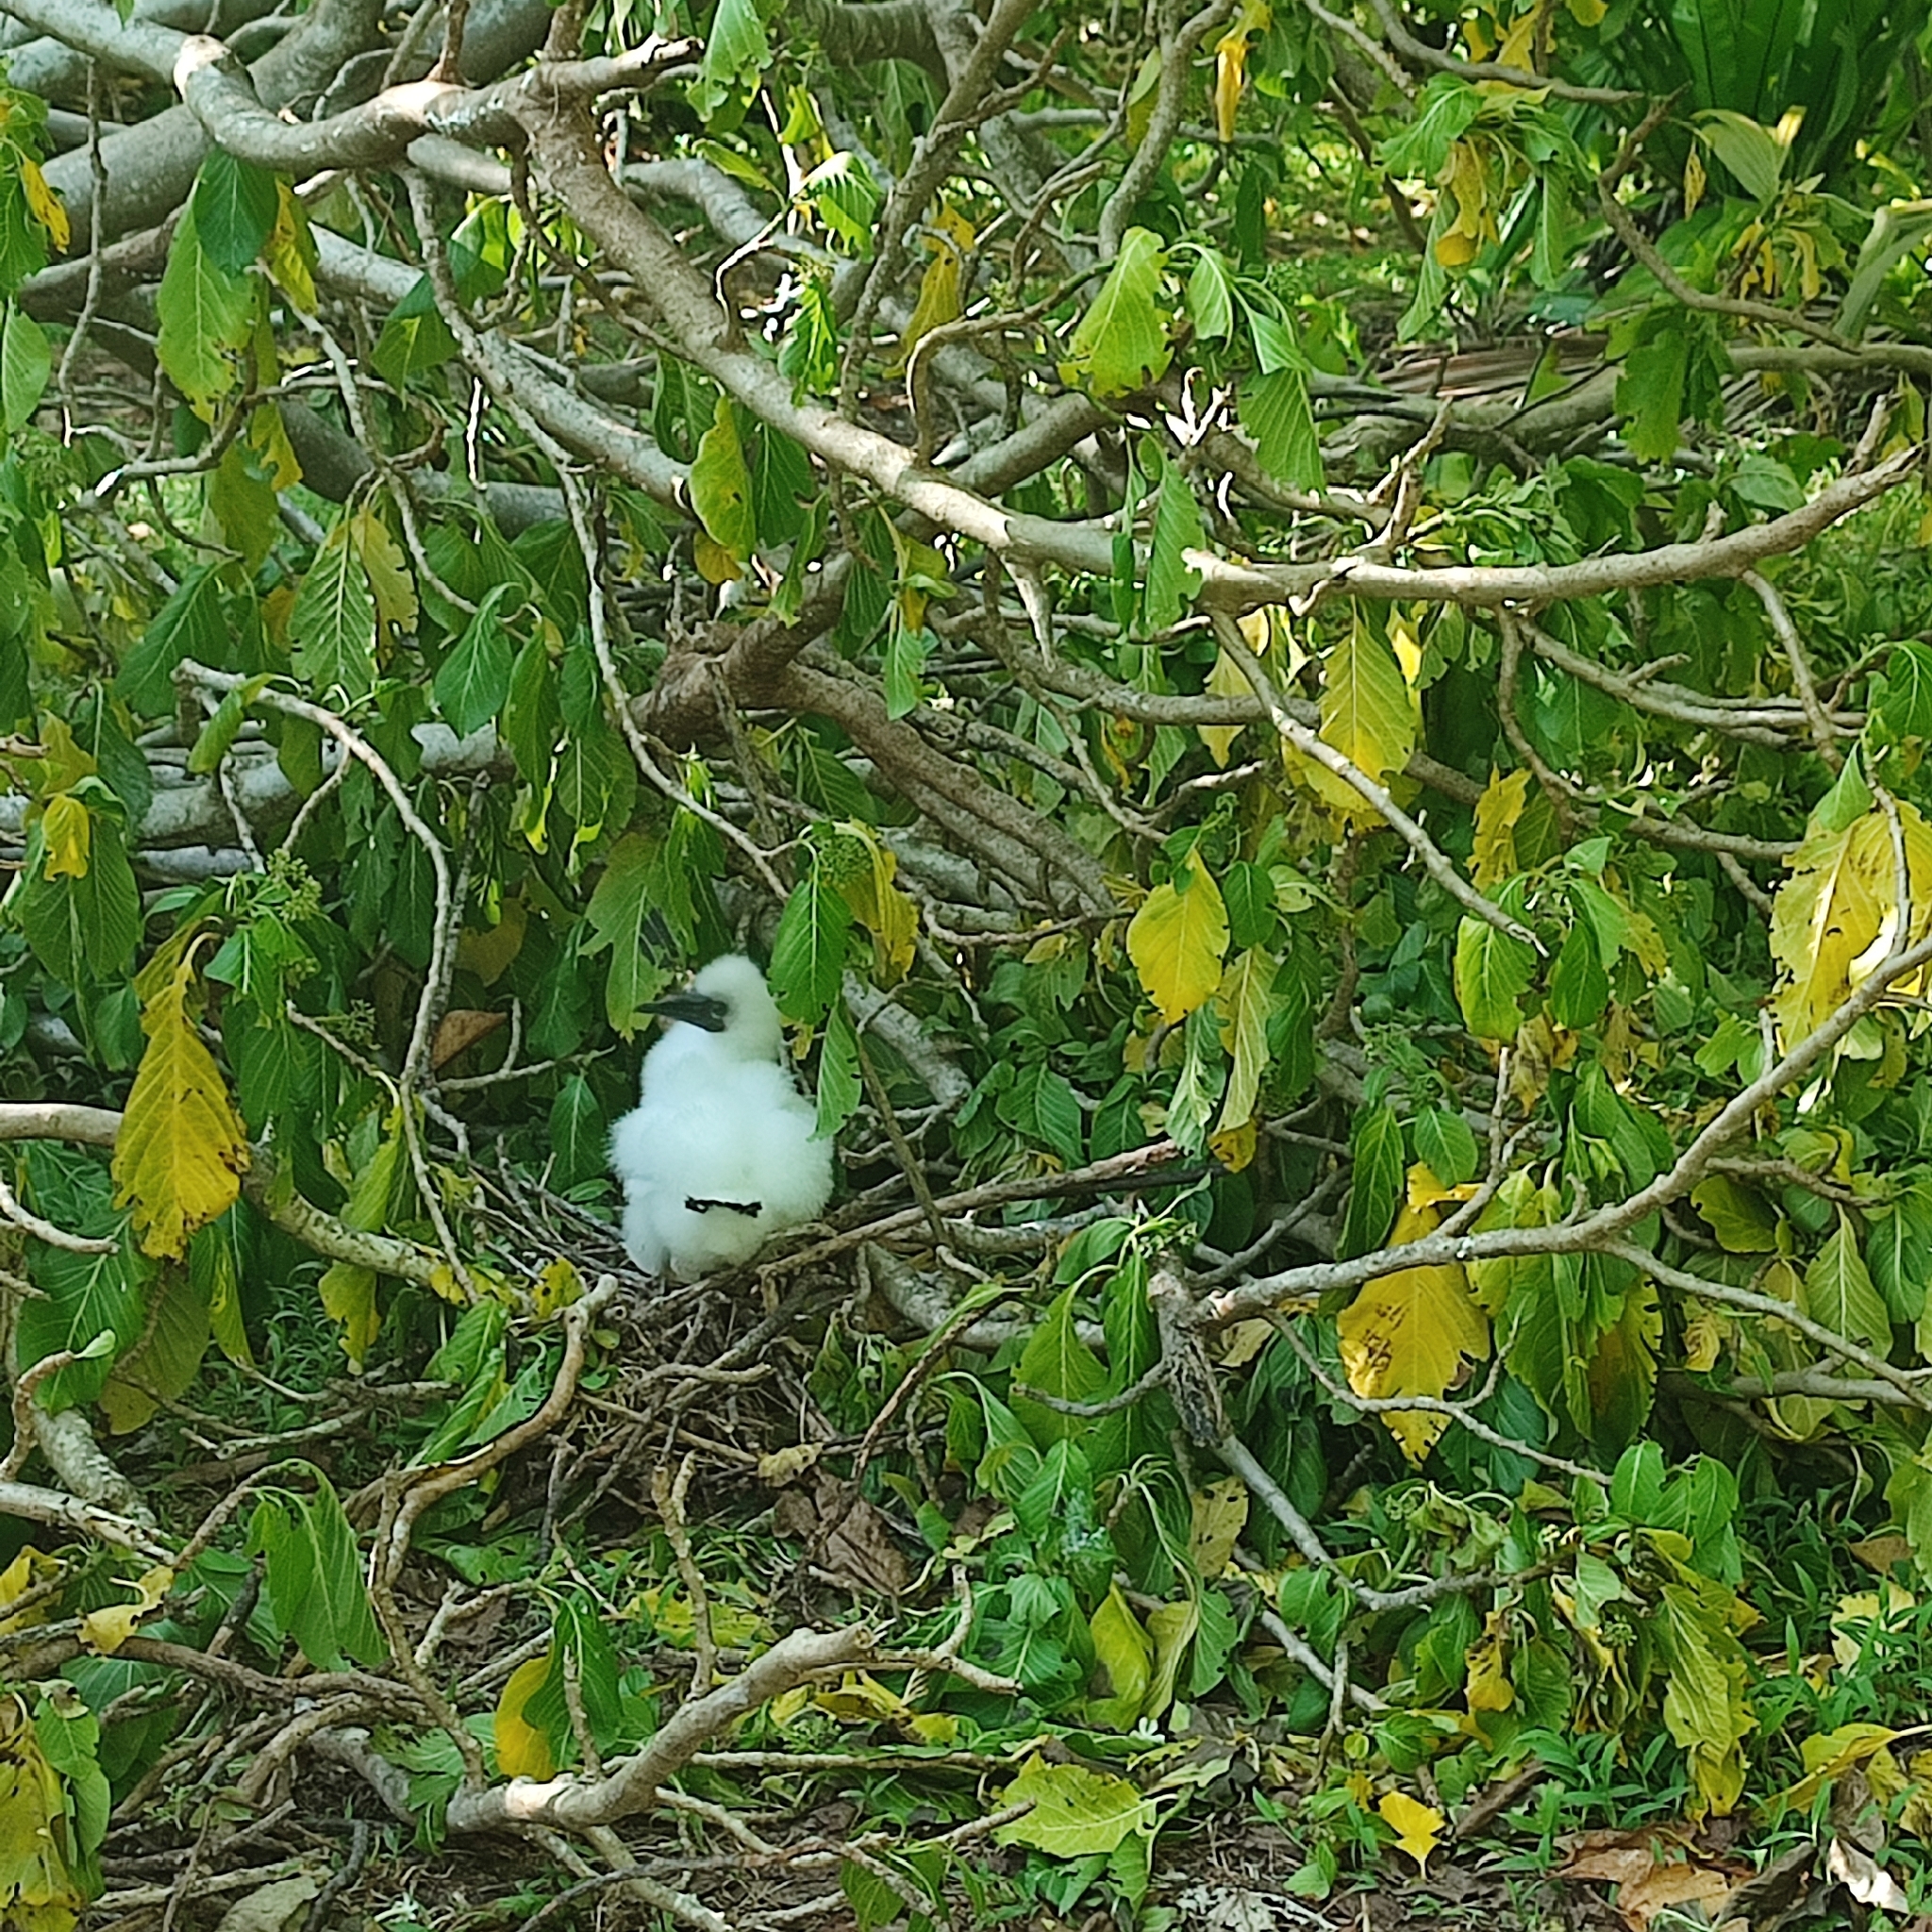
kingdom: Animalia
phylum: Chordata
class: Aves
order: Suliformes
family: Sulidae
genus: Sula
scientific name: Sula sula
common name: Red-footed booby
